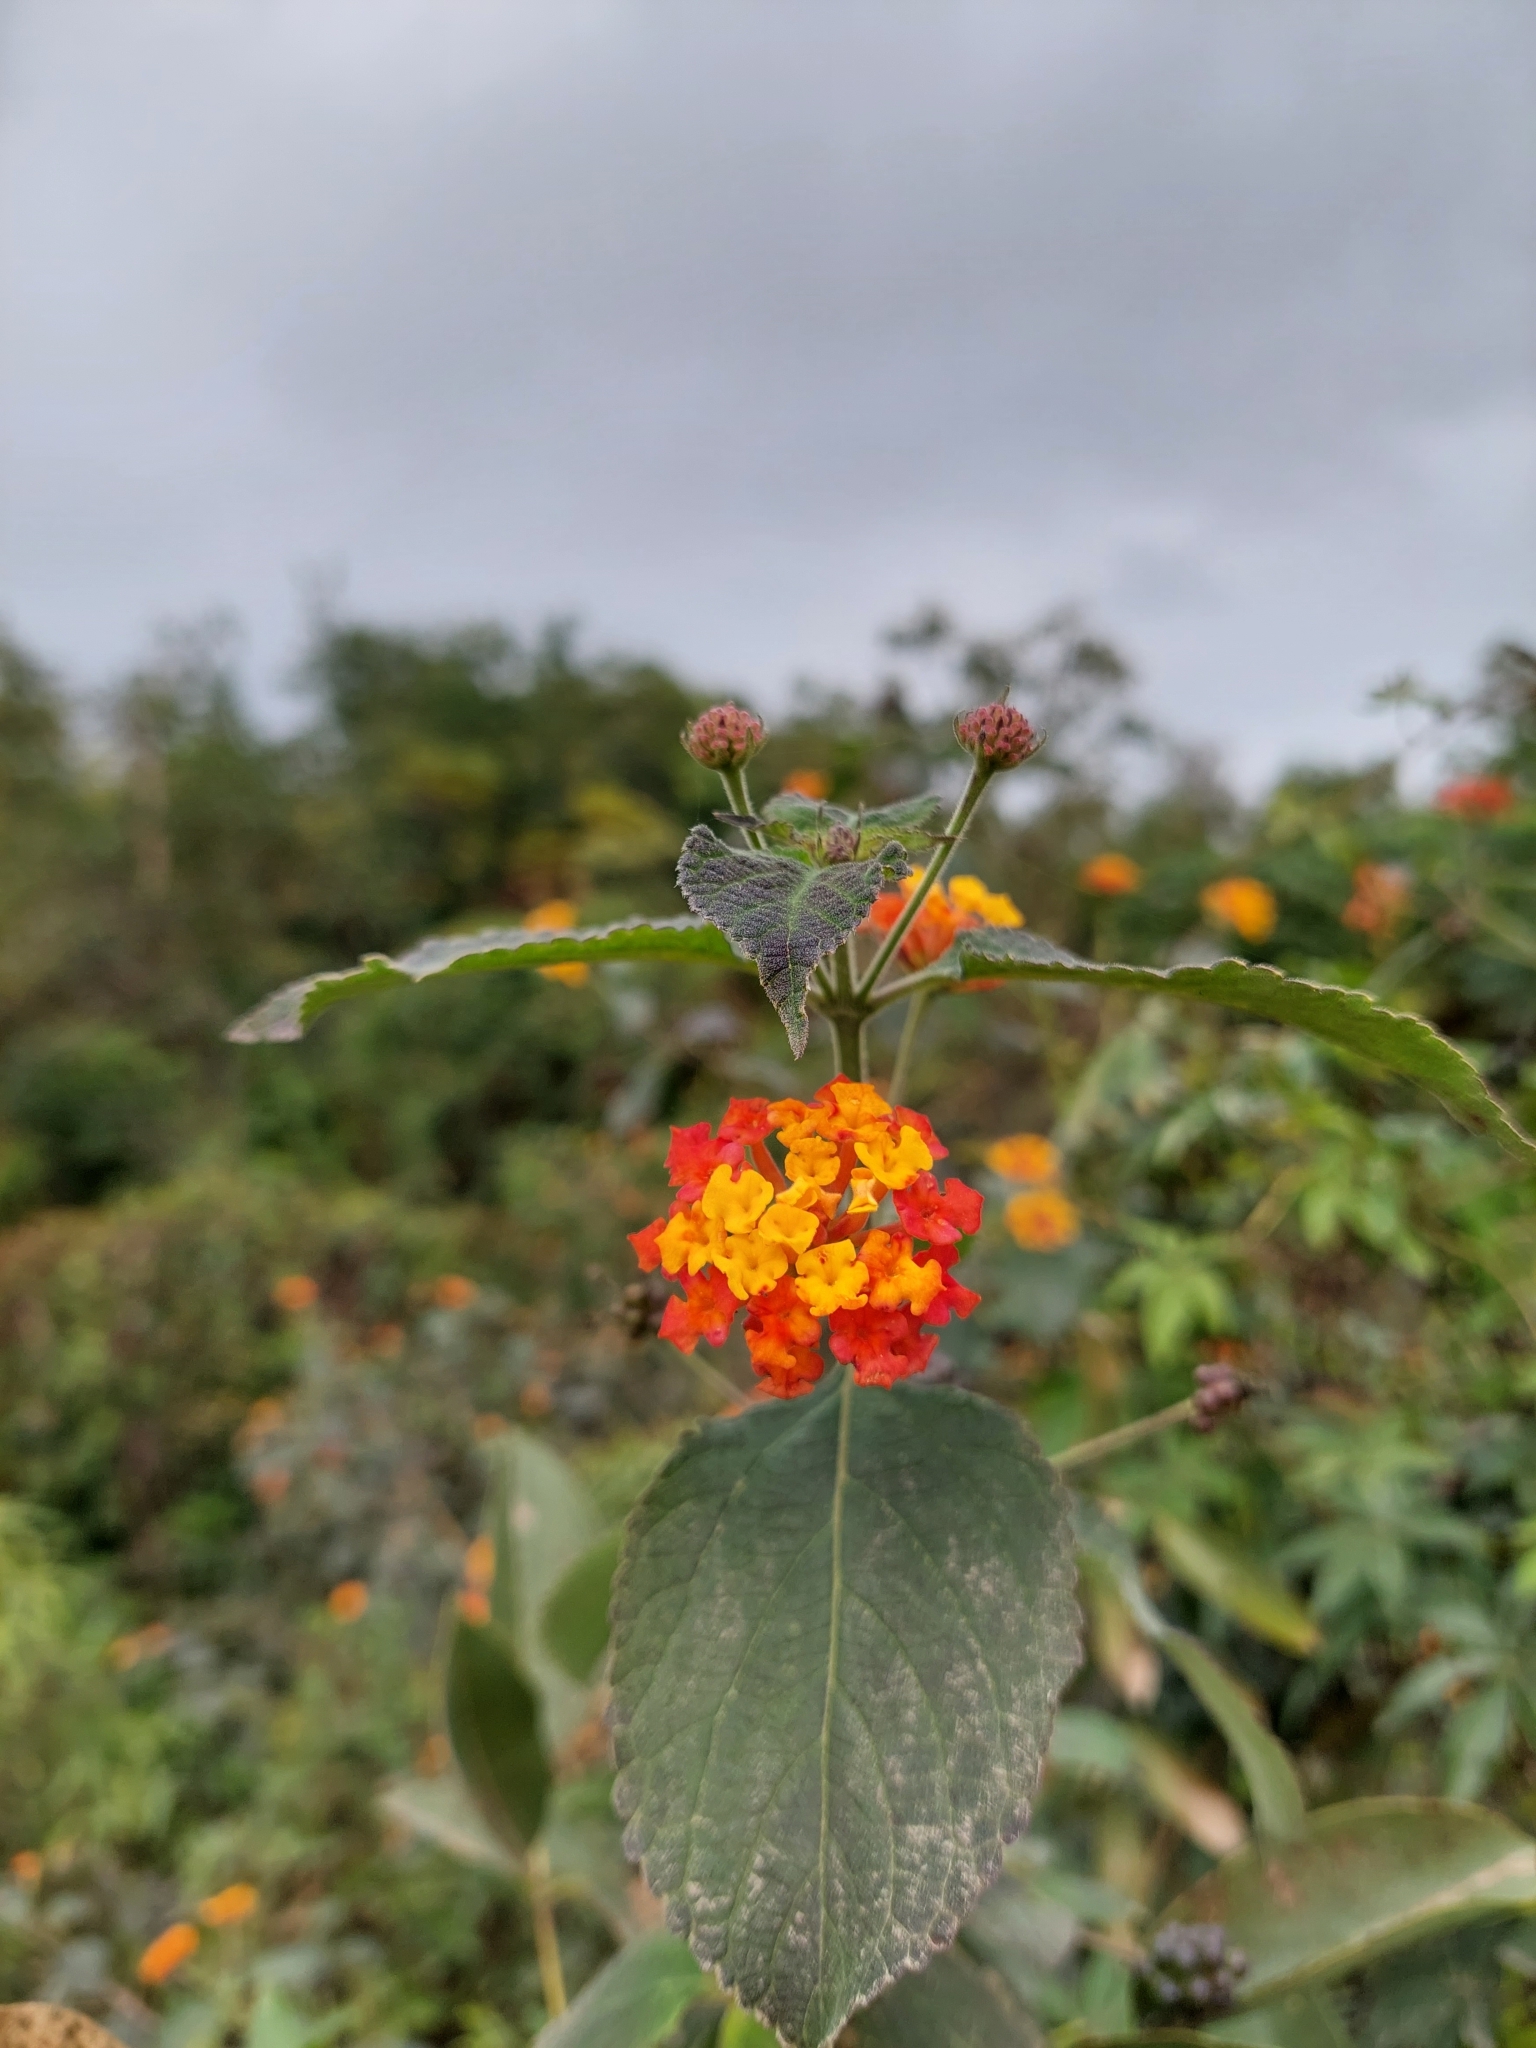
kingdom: Plantae
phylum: Tracheophyta
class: Magnoliopsida
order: Lamiales
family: Verbenaceae
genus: Lantana
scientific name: Lantana camara
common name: Lantana
